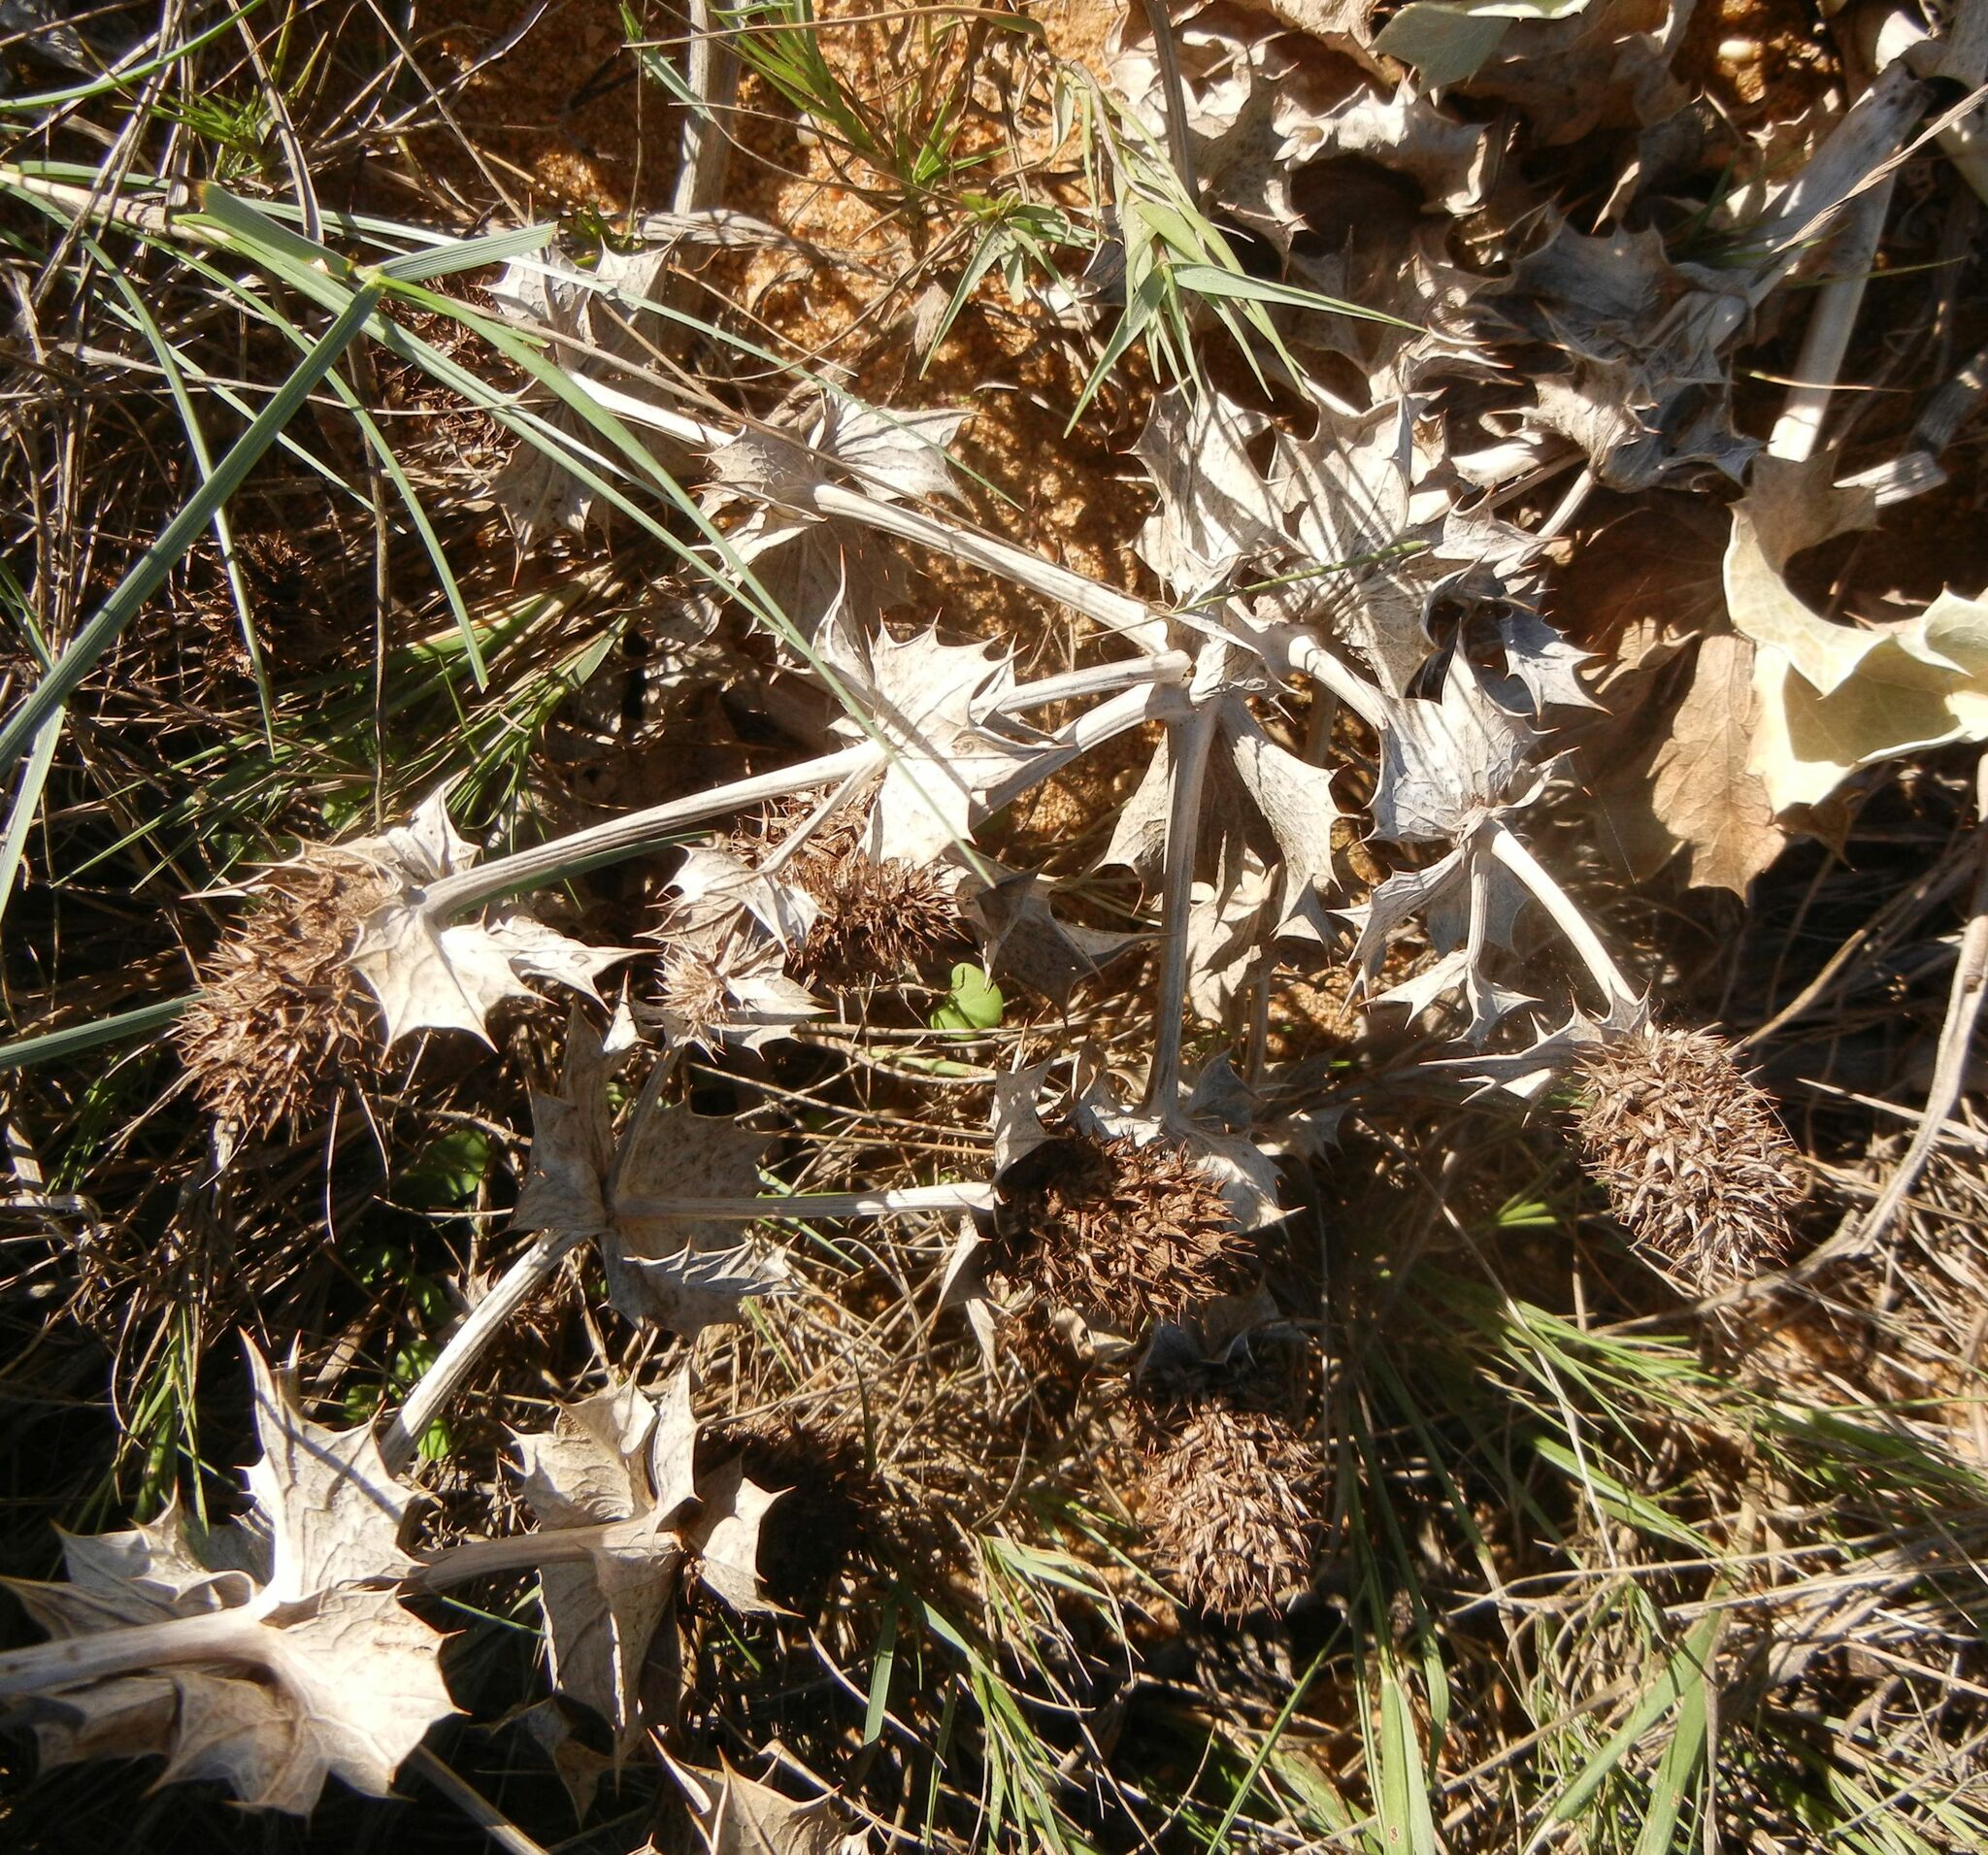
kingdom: Plantae
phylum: Tracheophyta
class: Magnoliopsida
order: Apiales
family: Apiaceae
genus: Eryngium
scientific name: Eryngium maritimum
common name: Sea-holly
